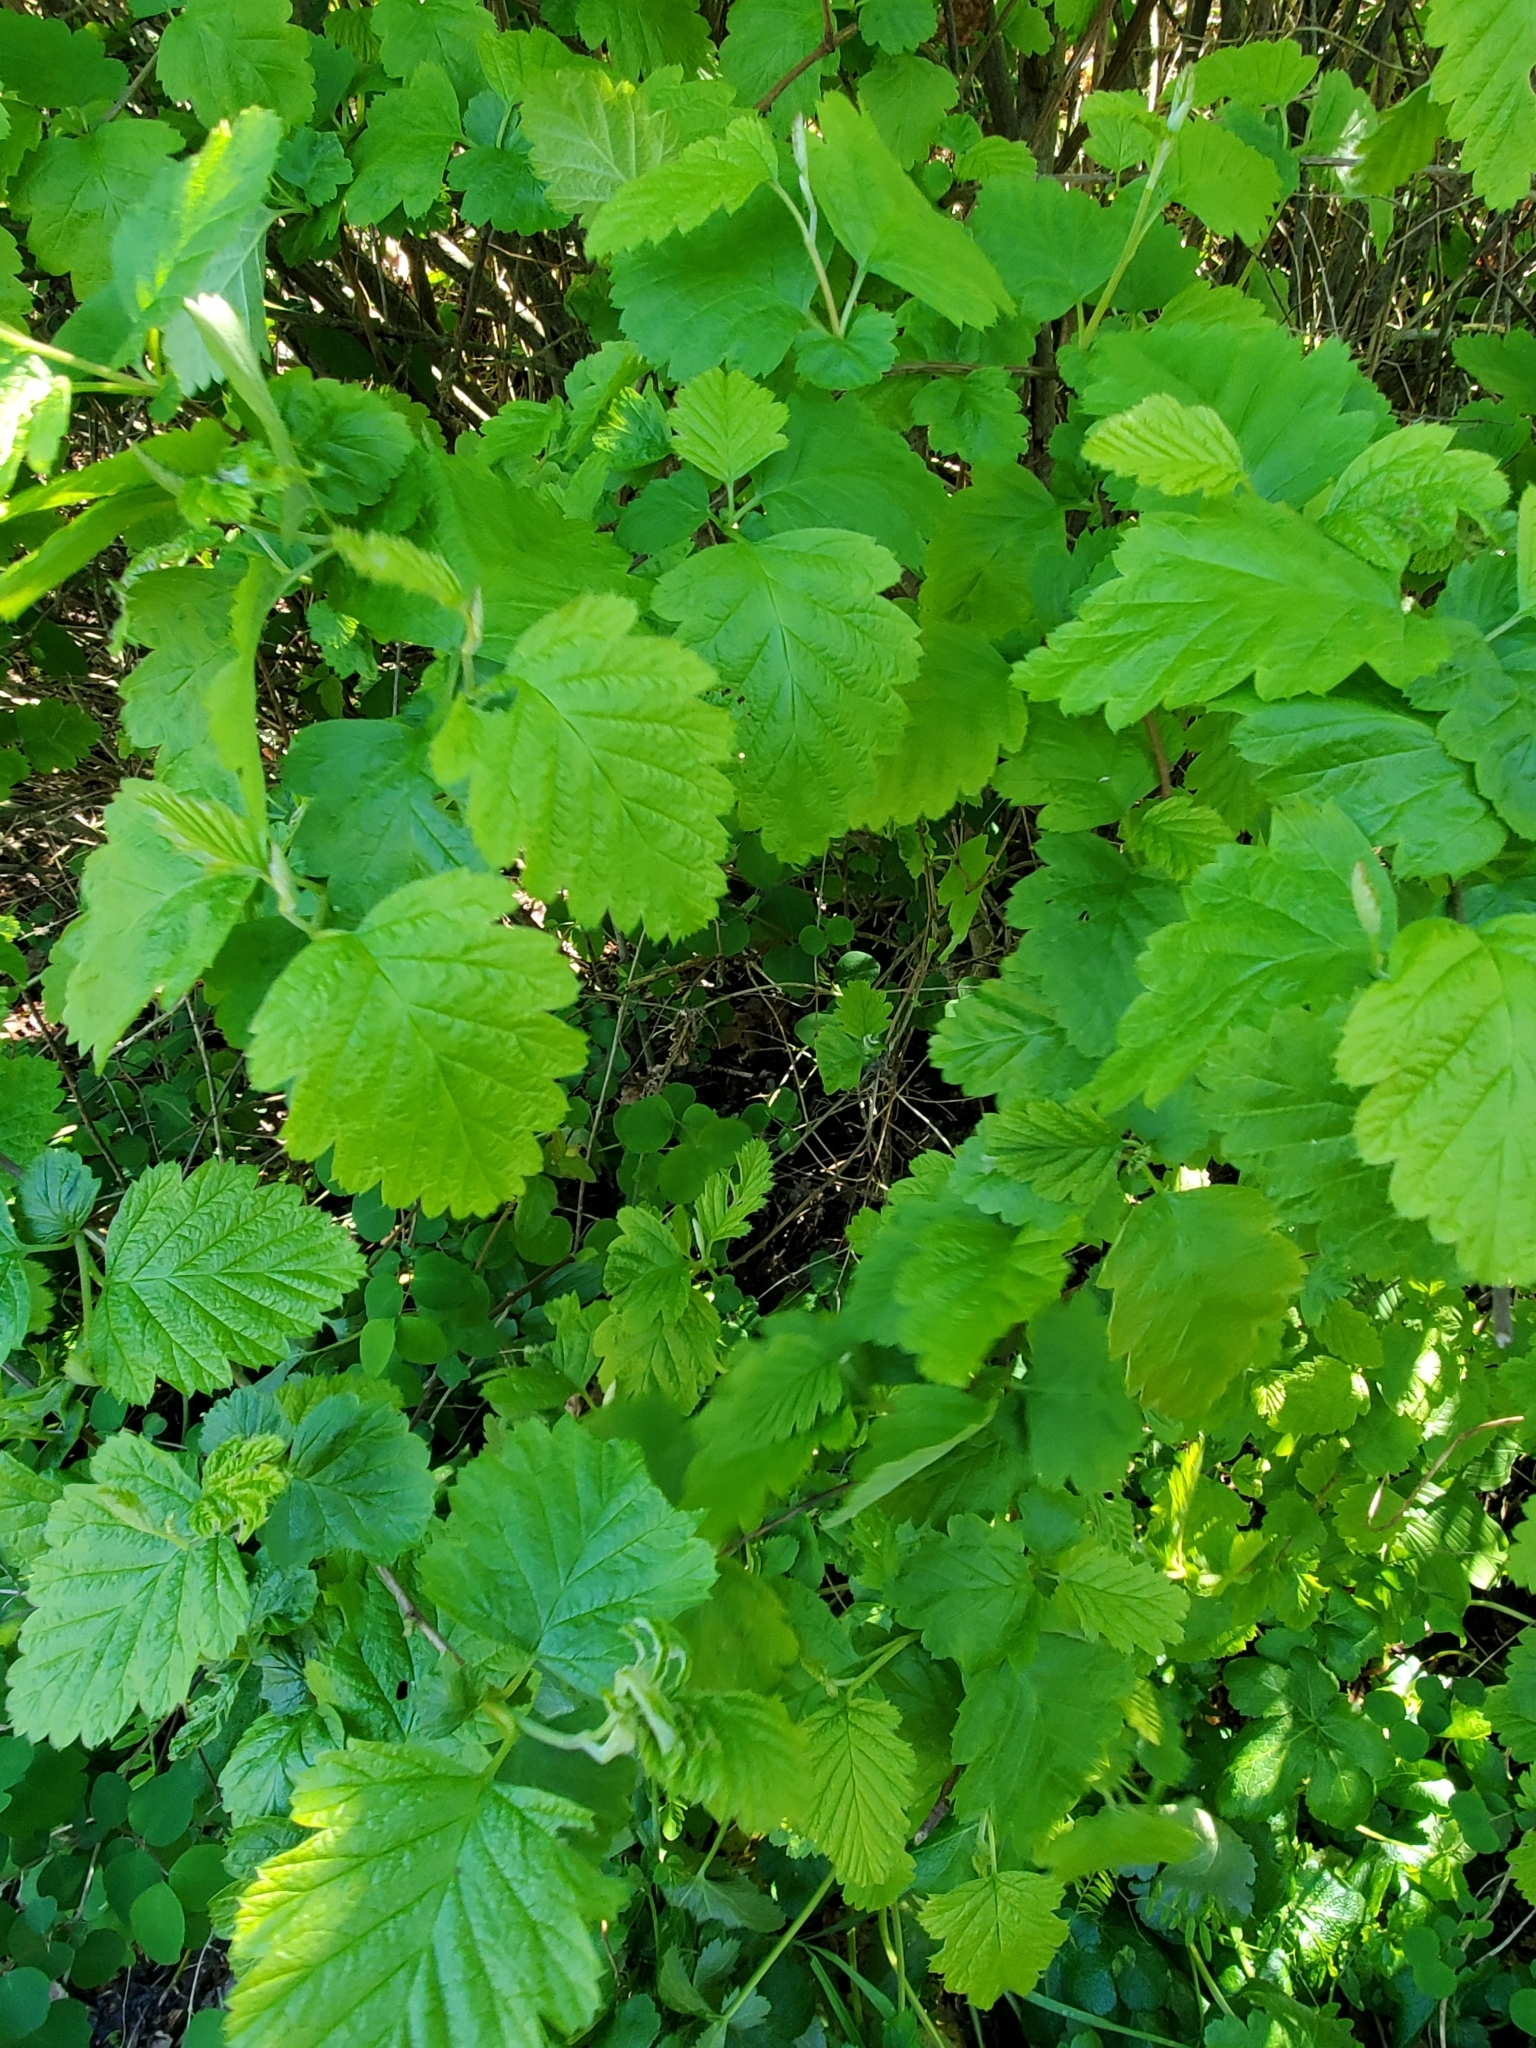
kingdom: Plantae
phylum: Tracheophyta
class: Magnoliopsida
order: Rosales
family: Rosaceae
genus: Holodiscus
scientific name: Holodiscus discolor
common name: Oceanspray
